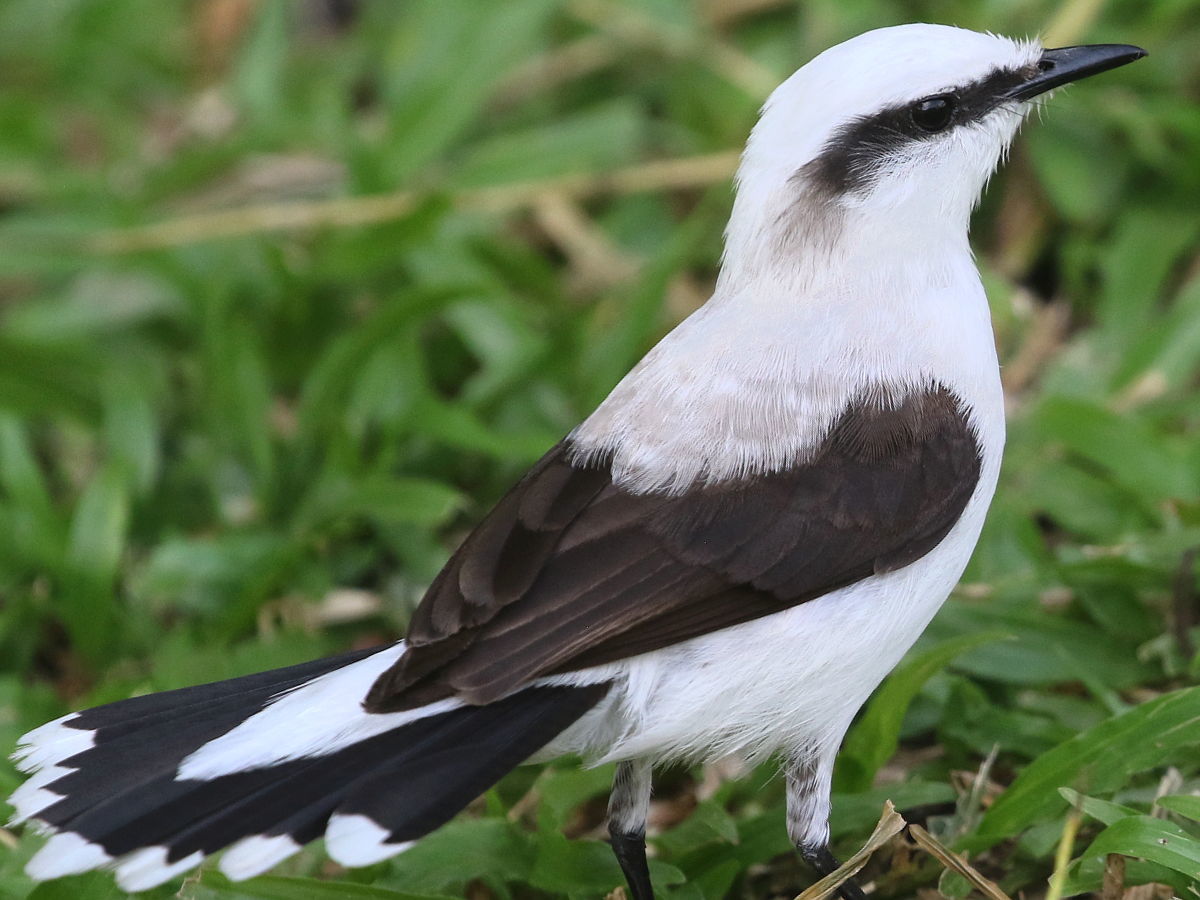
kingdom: Animalia
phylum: Chordata
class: Aves
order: Passeriformes
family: Tyrannidae
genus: Fluvicola
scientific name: Fluvicola nengeta
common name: Masked water tyrant
